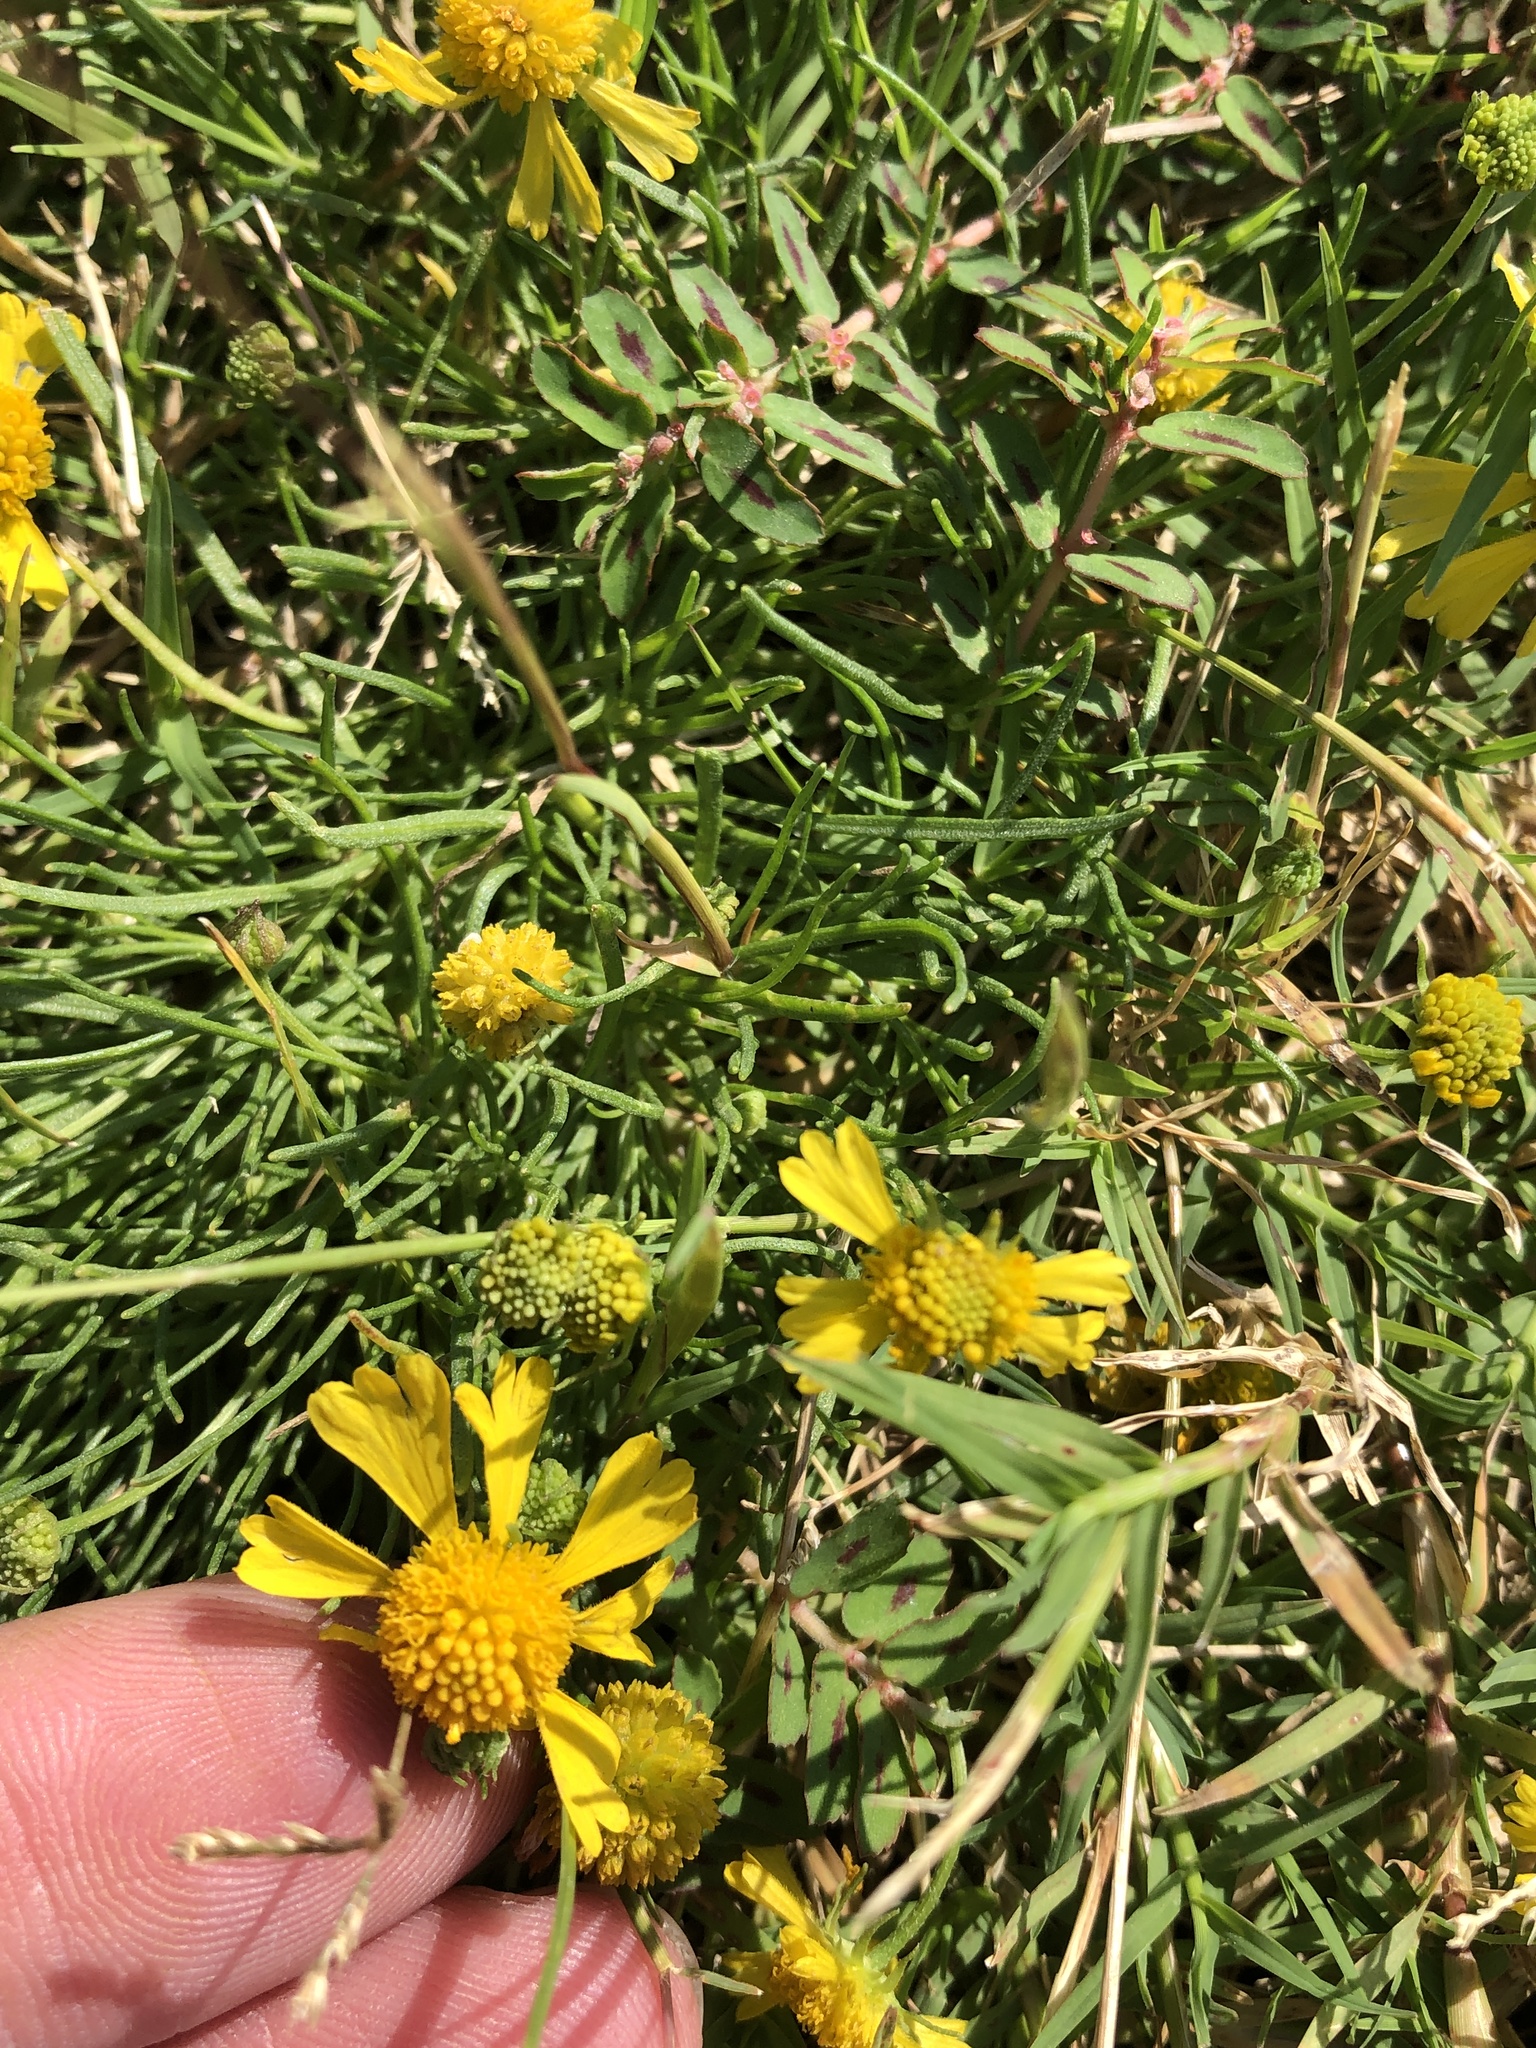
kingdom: Plantae
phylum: Tracheophyta
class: Magnoliopsida
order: Asterales
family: Asteraceae
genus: Helenium
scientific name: Helenium amarum
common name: Bitter sneezeweed
